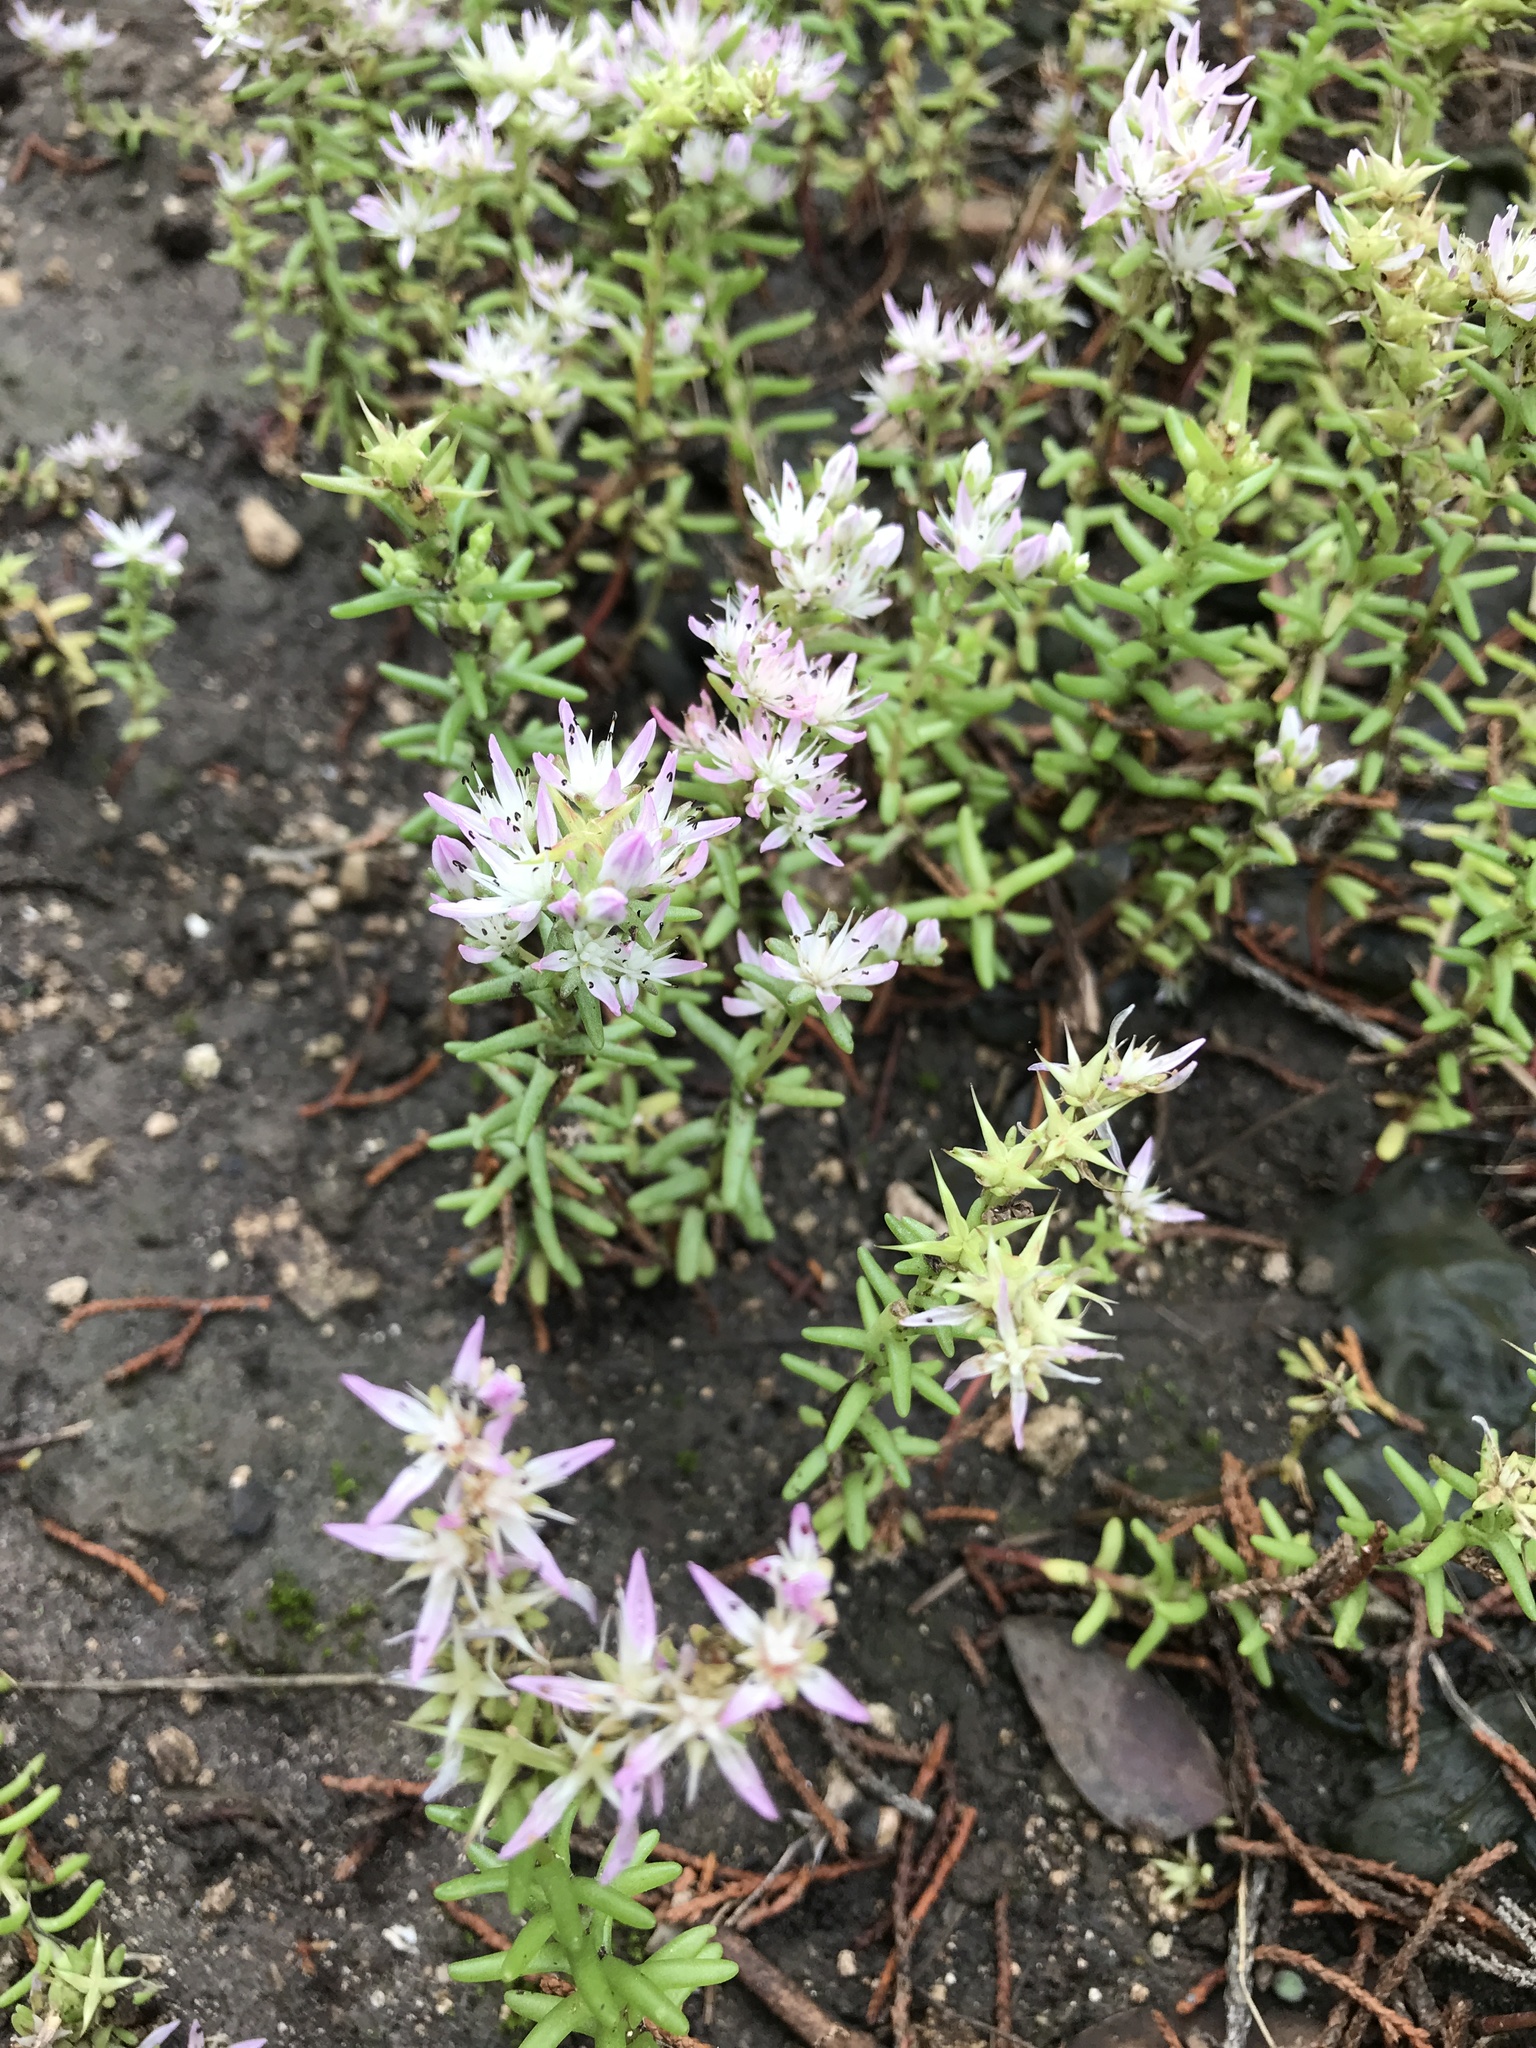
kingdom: Plantae
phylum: Tracheophyta
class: Magnoliopsida
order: Saxifragales
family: Crassulaceae
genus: Sedum
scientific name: Sedum pulchellum
